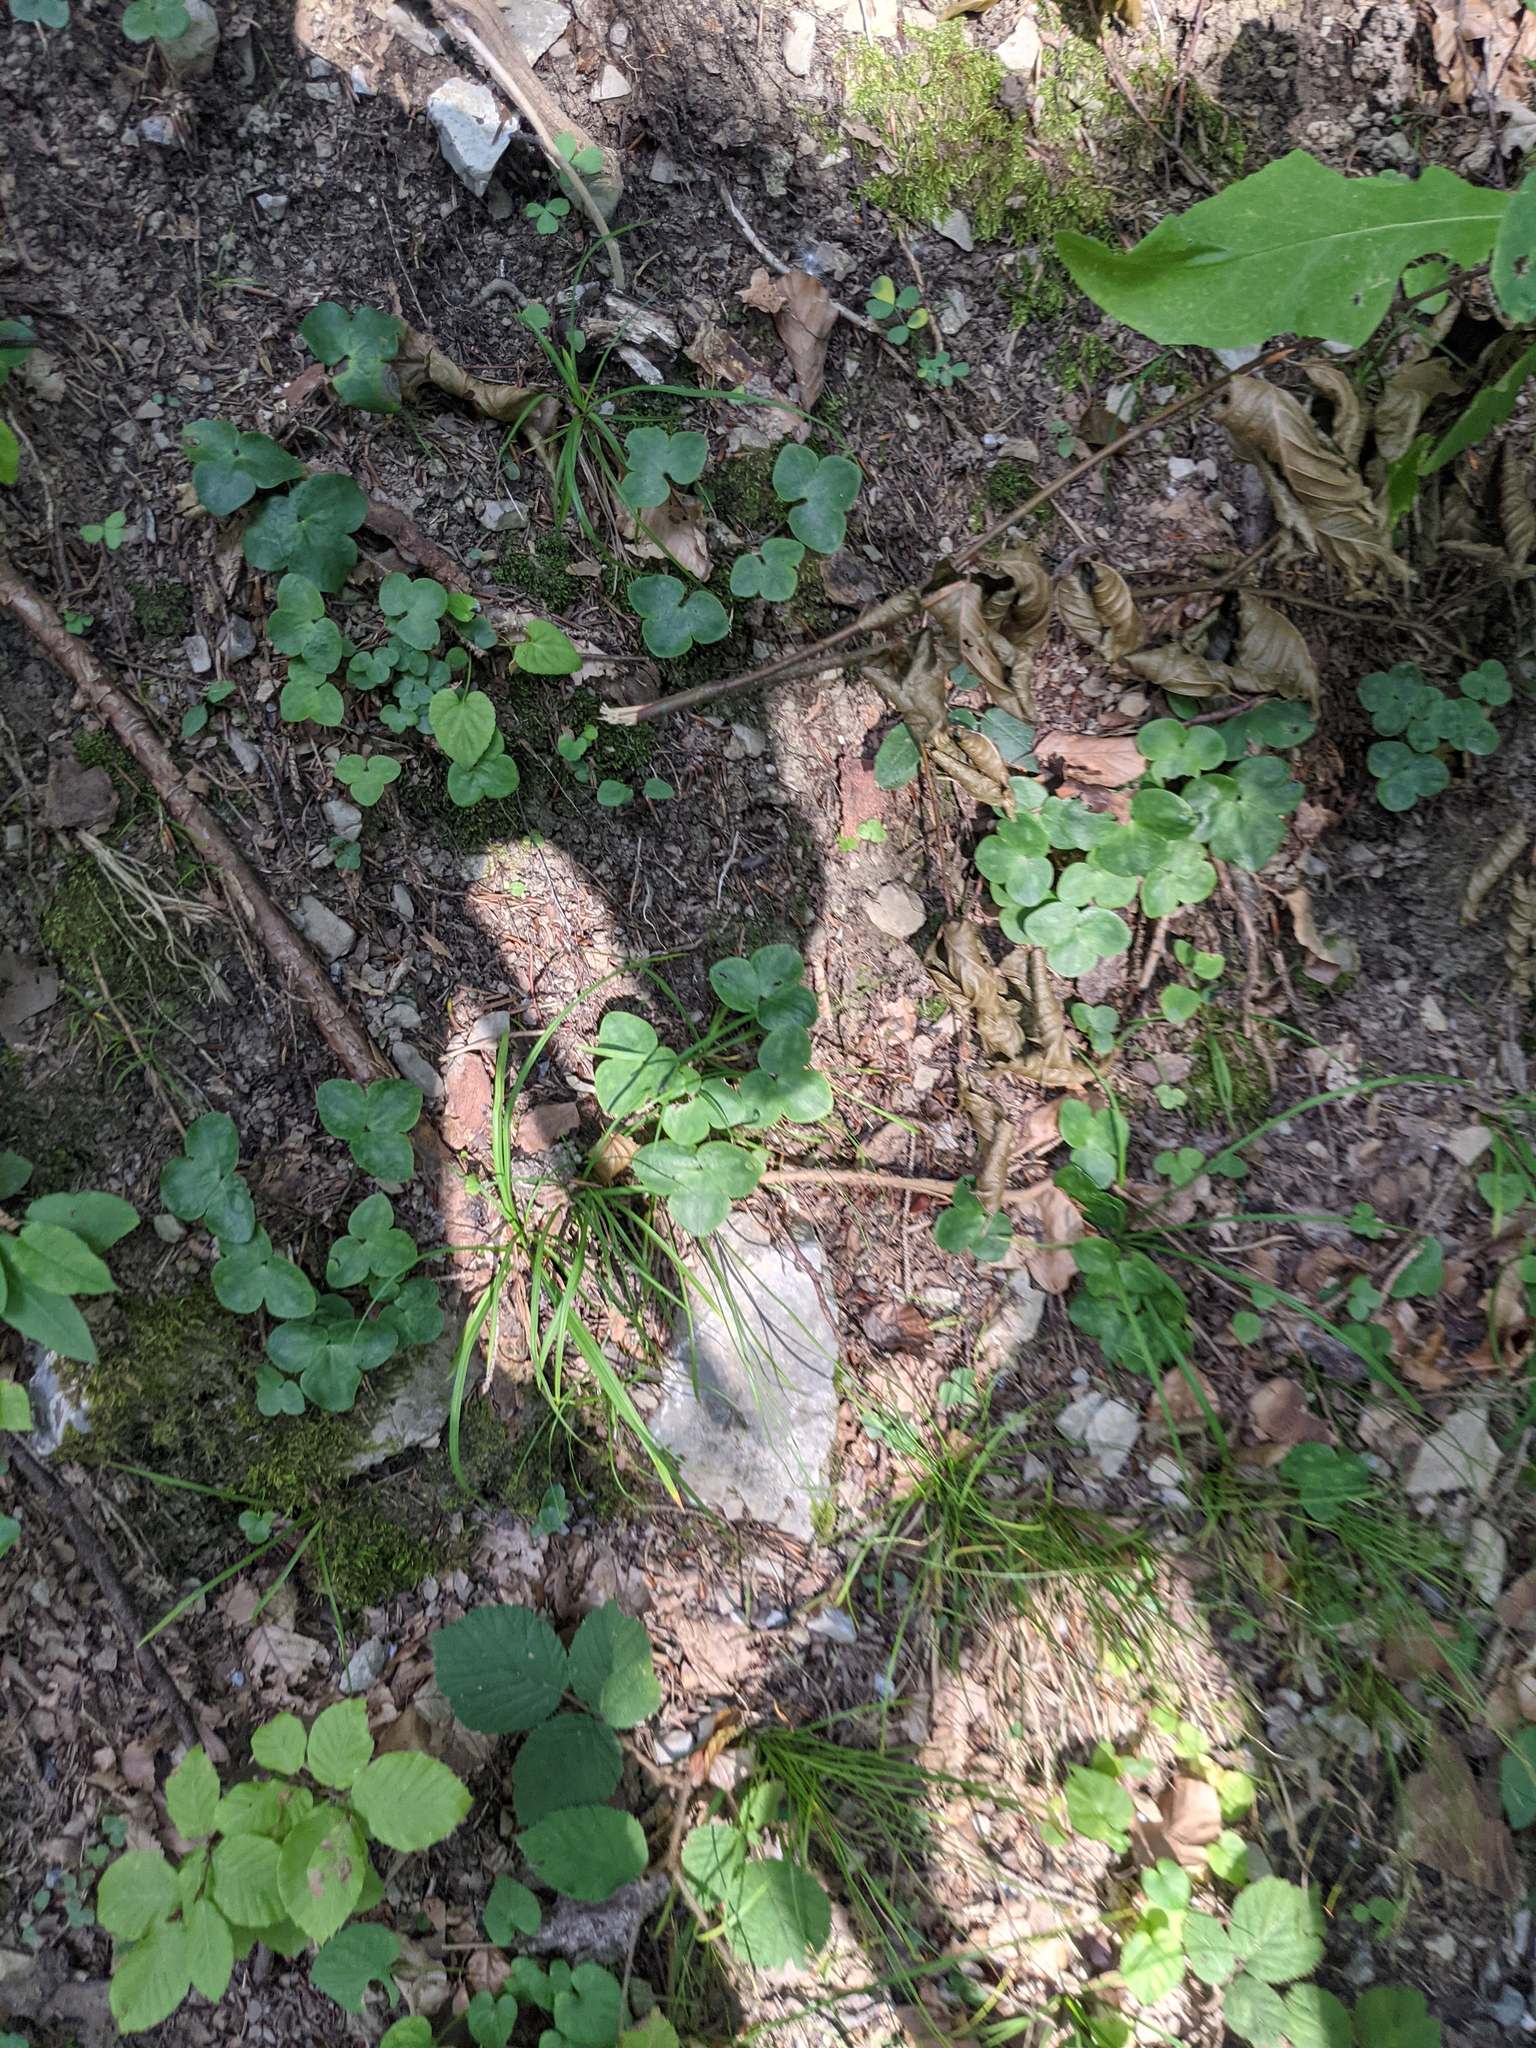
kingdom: Plantae
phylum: Tracheophyta
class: Magnoliopsida
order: Ranunculales
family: Ranunculaceae
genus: Hepatica
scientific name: Hepatica nobilis
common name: Liverleaf
